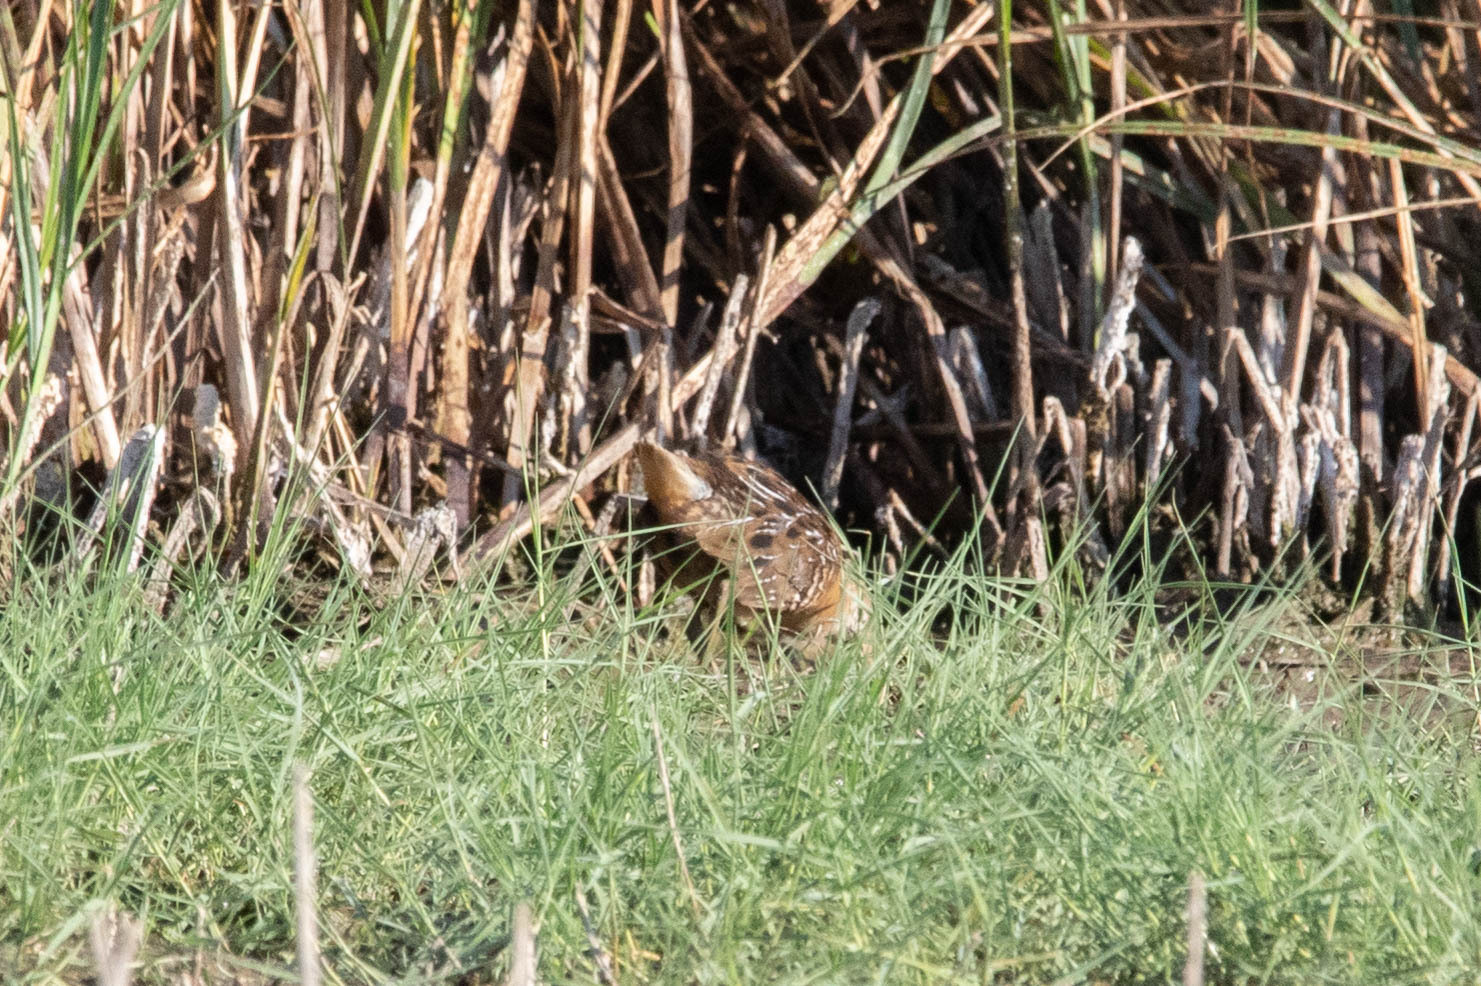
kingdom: Animalia
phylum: Chordata
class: Aves
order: Gruiformes
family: Rallidae
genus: Porzana
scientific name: Porzana carolina
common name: Sora
